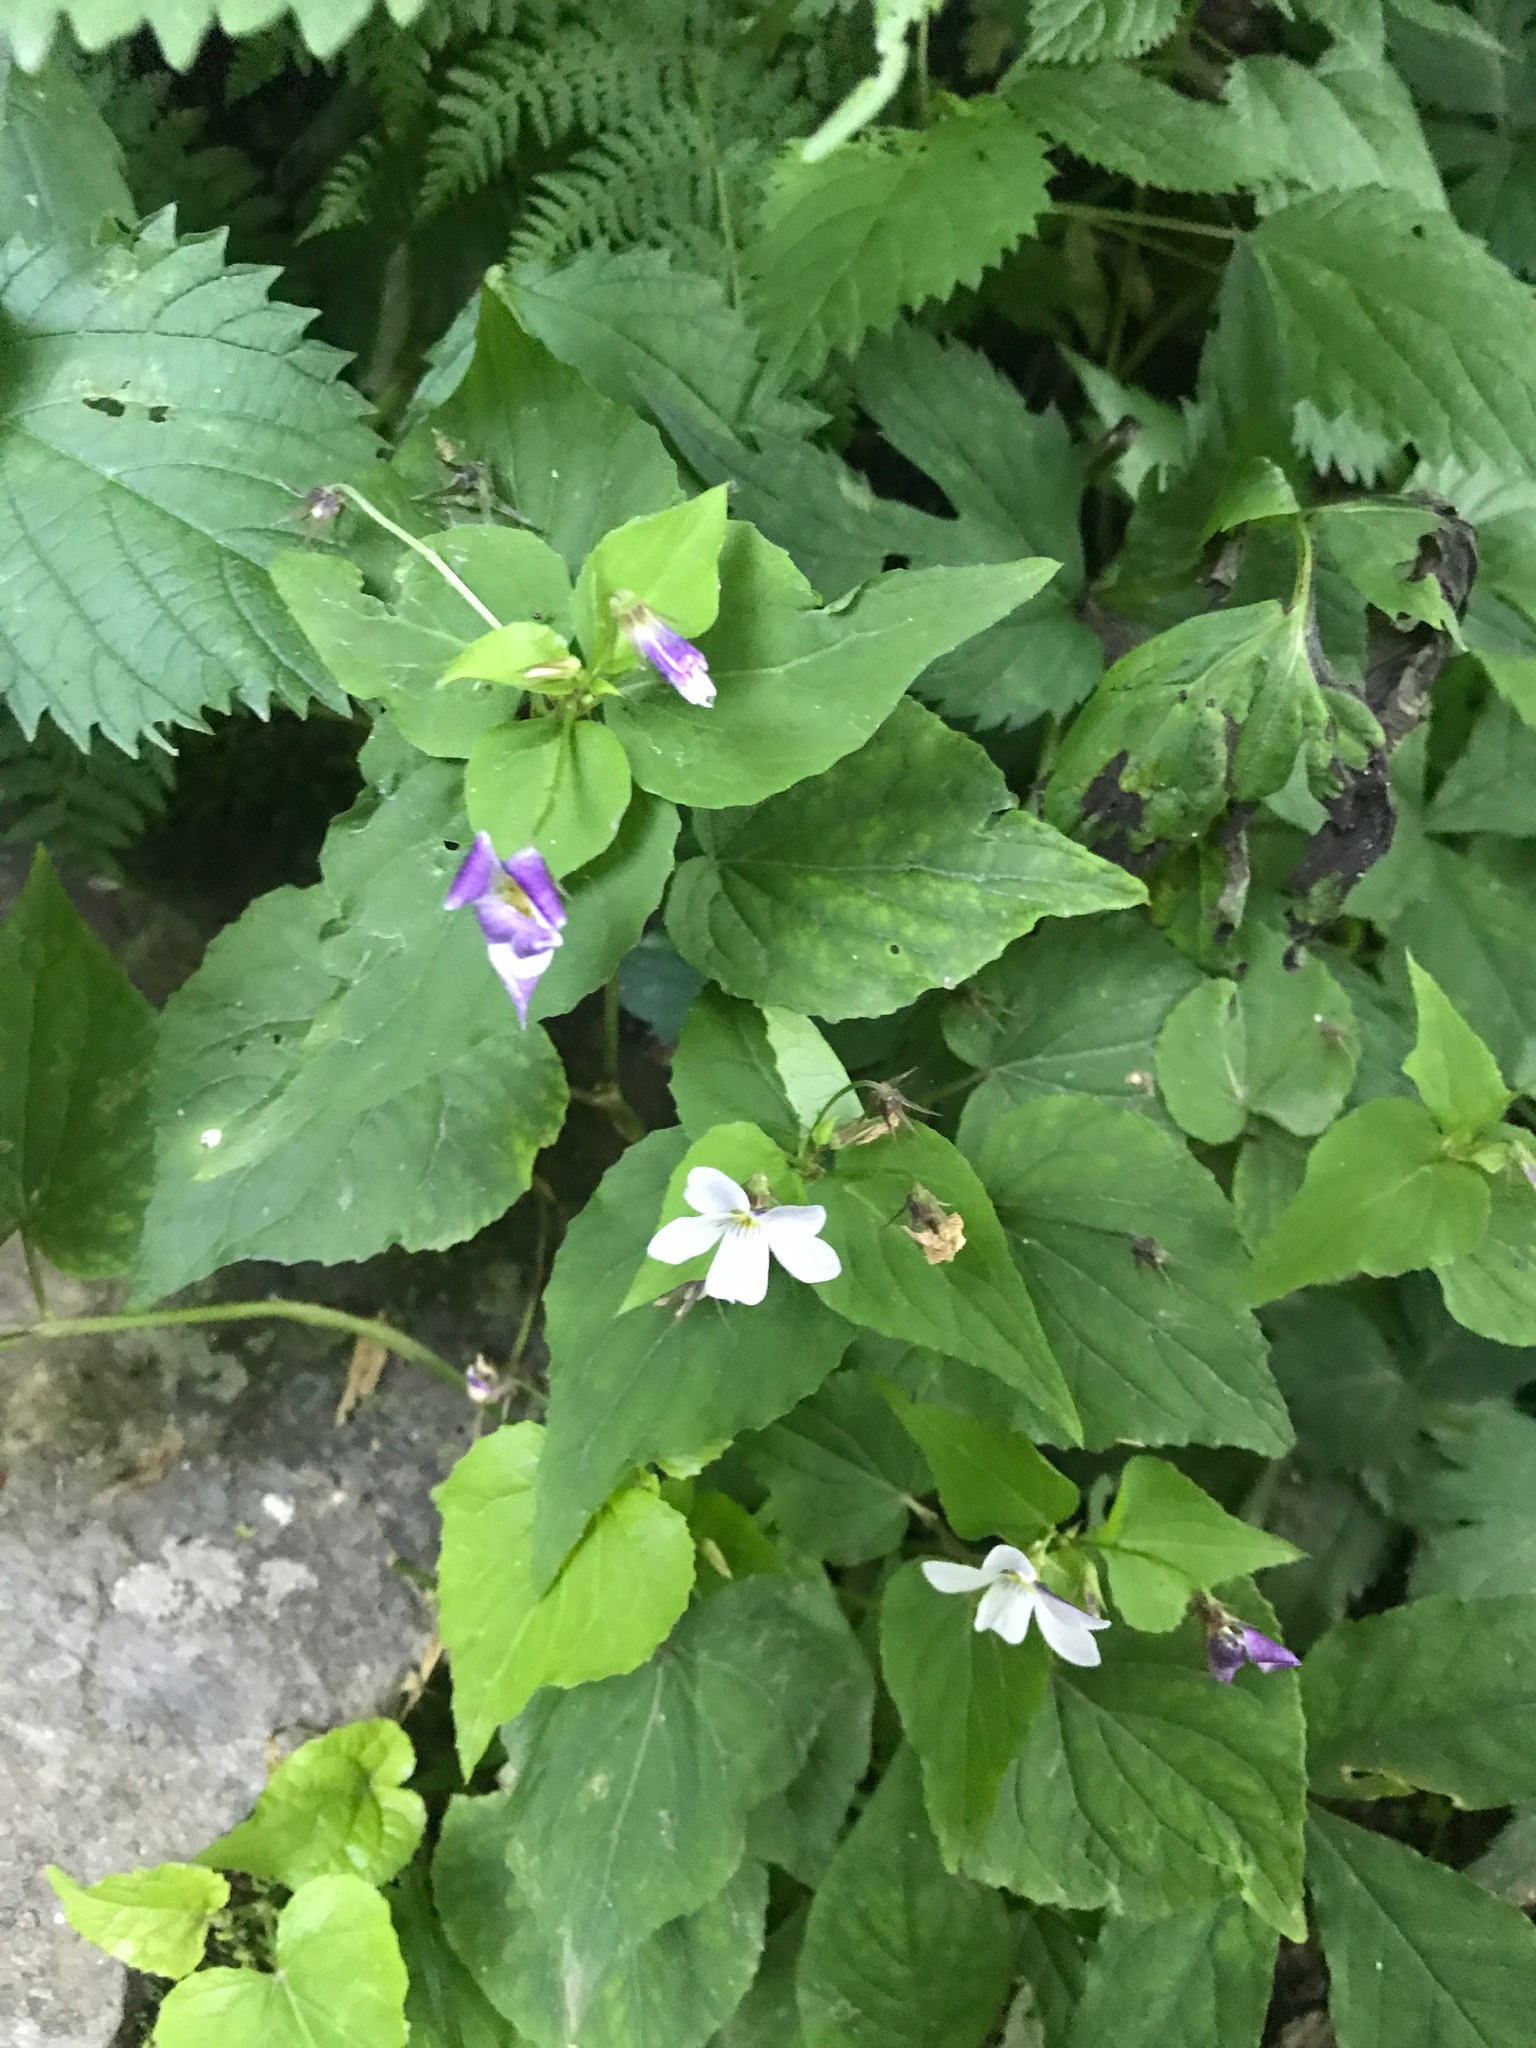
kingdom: Plantae
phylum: Tracheophyta
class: Magnoliopsida
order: Malpighiales
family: Violaceae
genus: Viola
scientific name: Viola canadensis
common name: Canada violet
